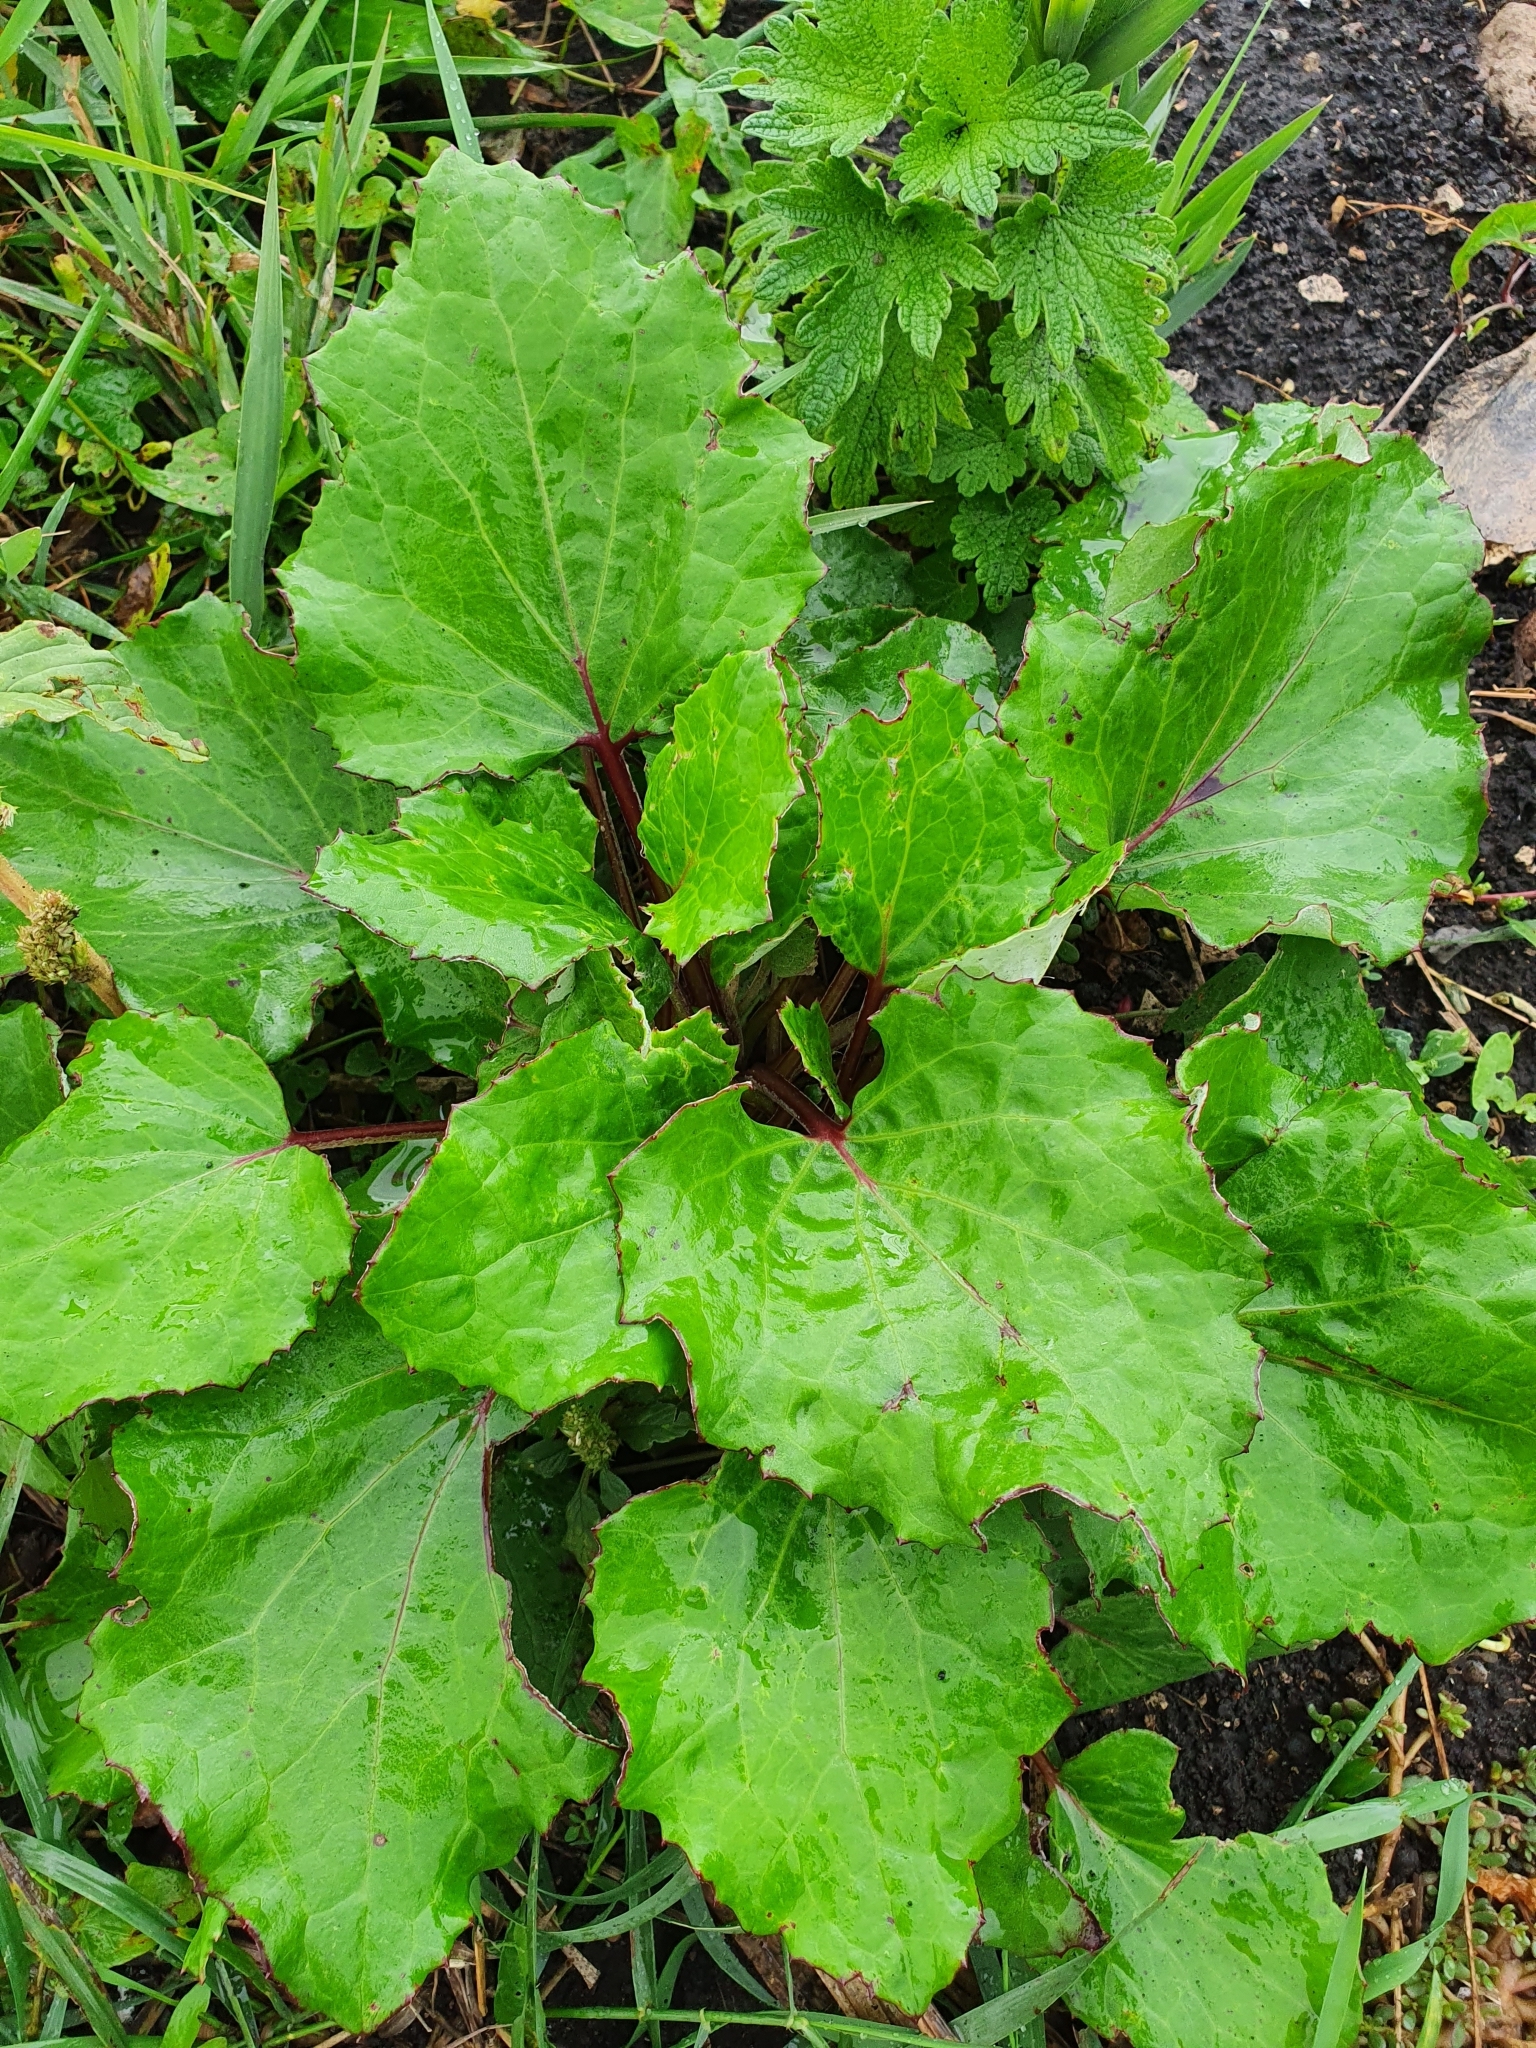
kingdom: Plantae
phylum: Tracheophyta
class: Magnoliopsida
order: Asterales
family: Asteraceae
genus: Tussilago
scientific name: Tussilago farfara
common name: Coltsfoot
